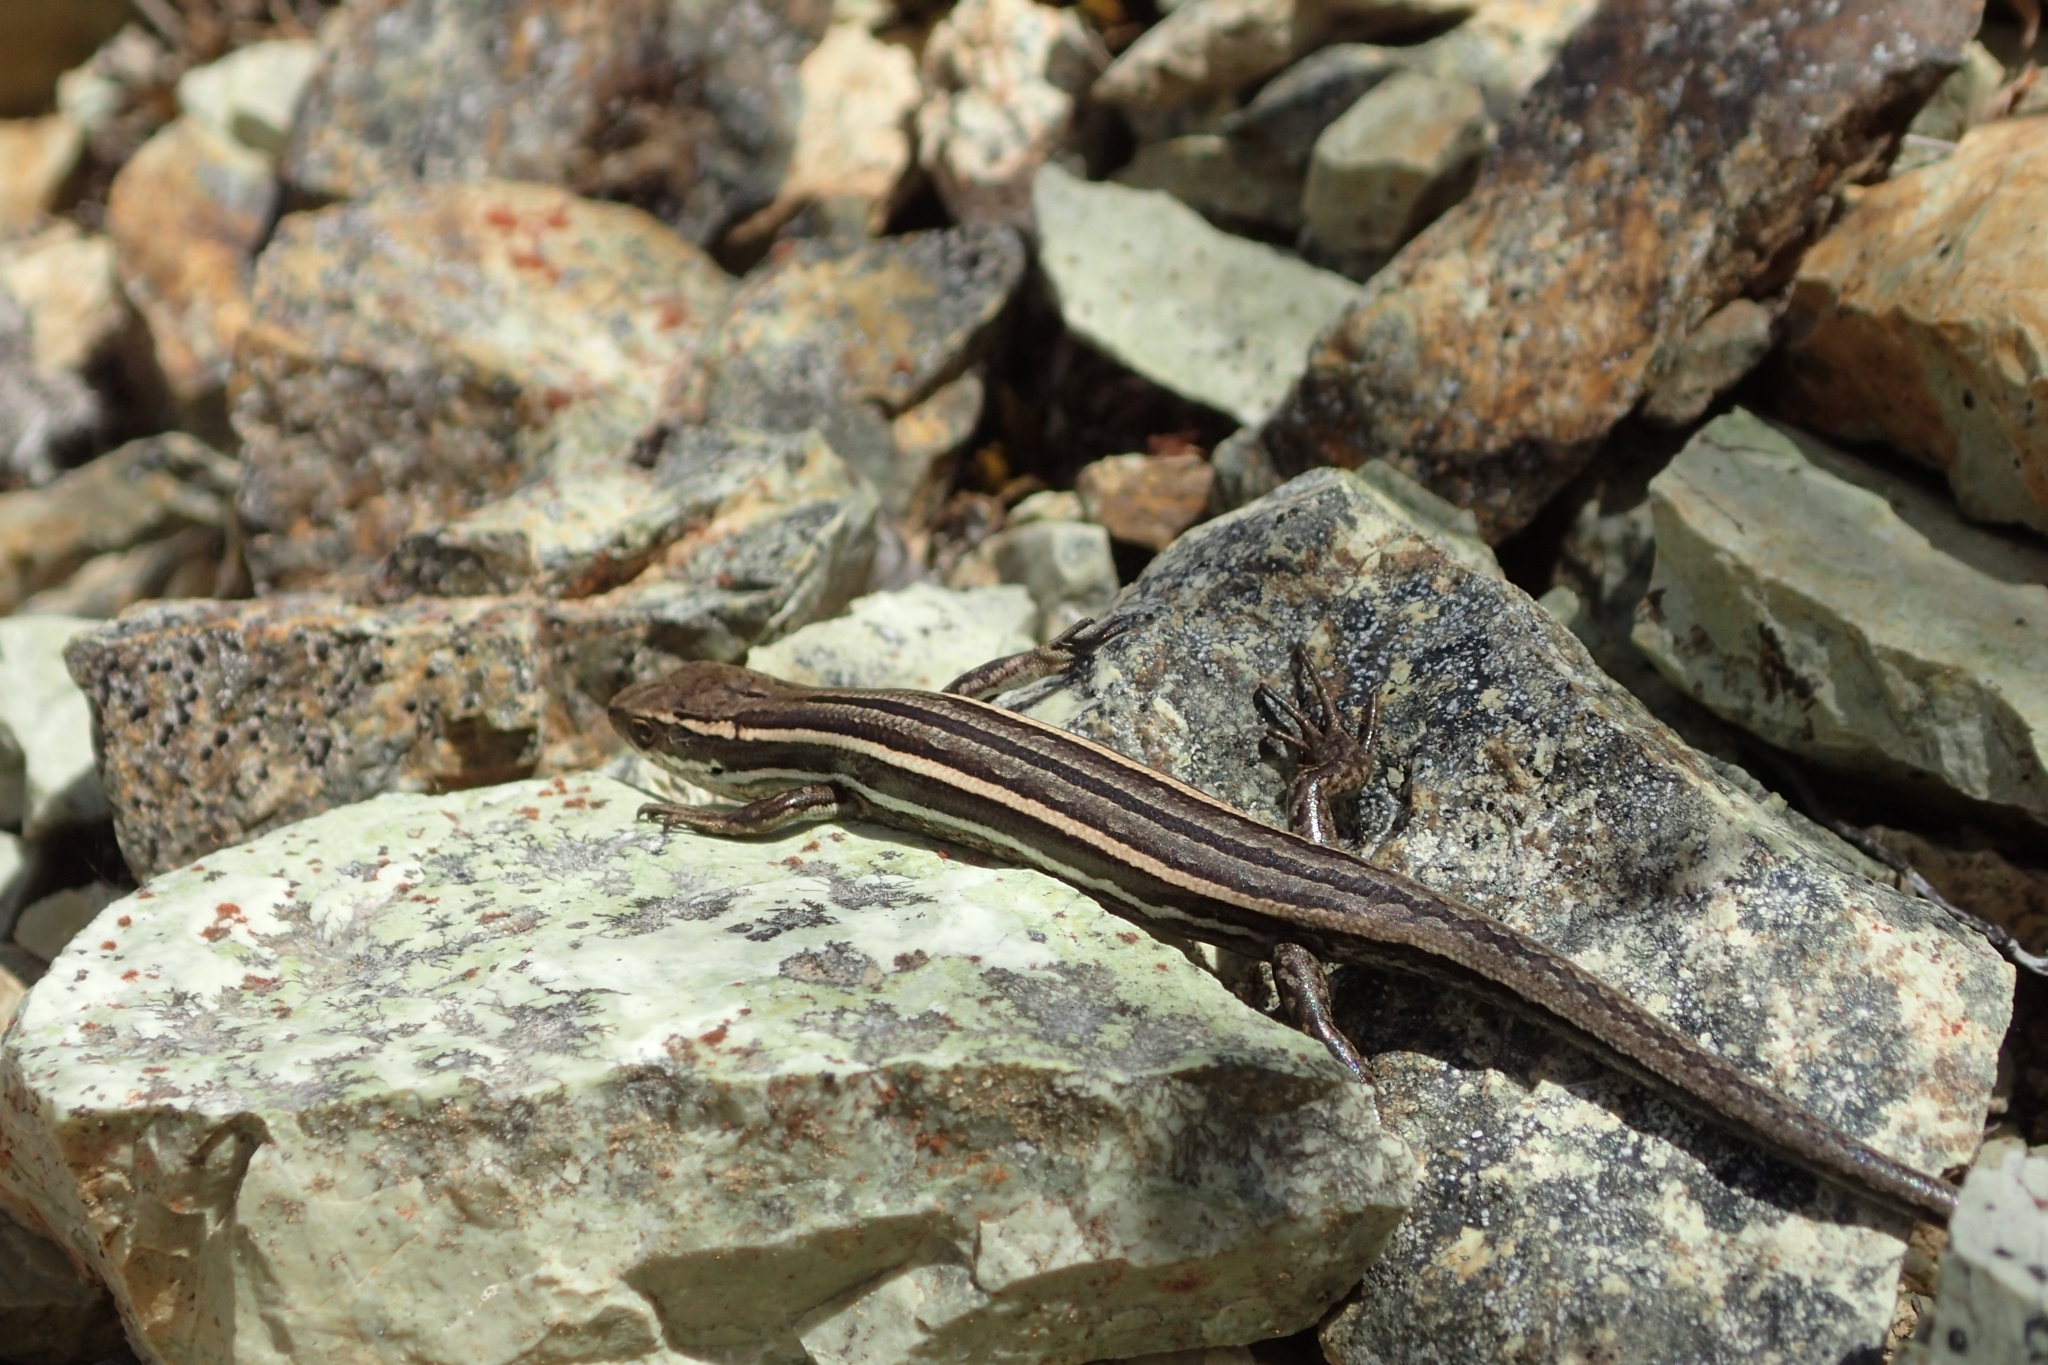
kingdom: Animalia
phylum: Chordata
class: Squamata
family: Scincidae
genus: Oligosoma
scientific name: Oligosoma maccanni
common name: Mccann’s skink
